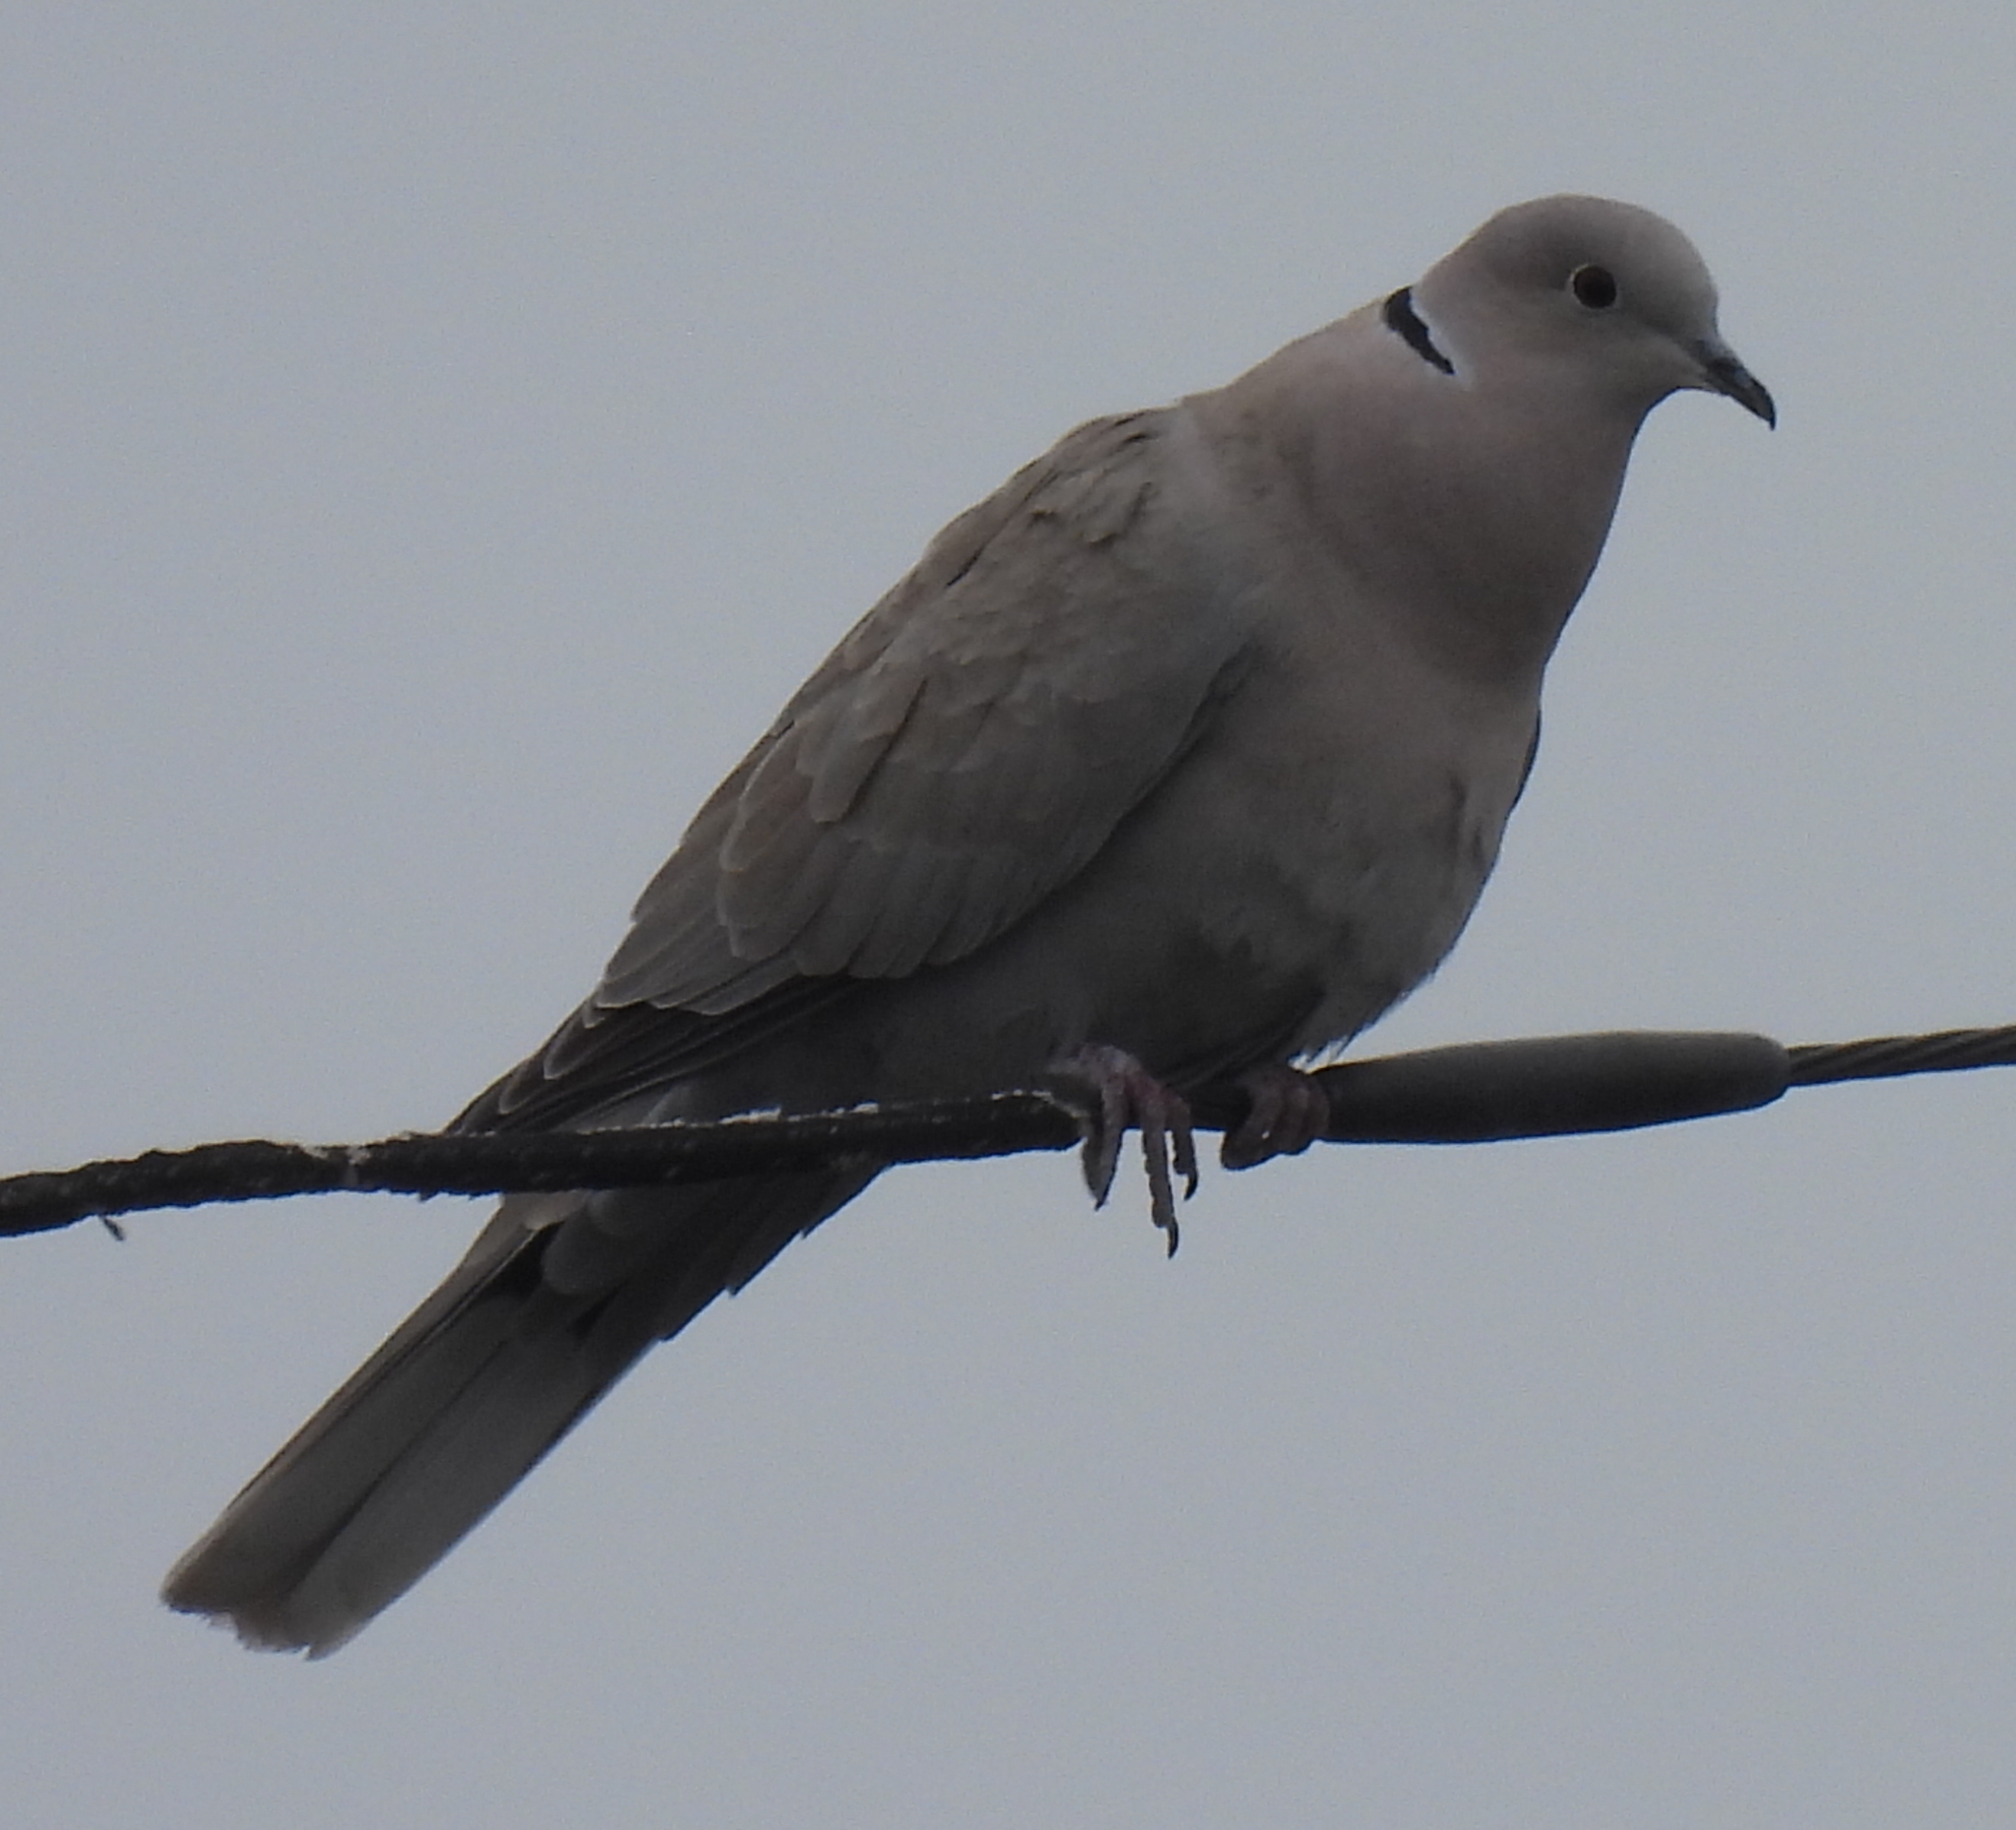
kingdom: Animalia
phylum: Chordata
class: Aves
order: Columbiformes
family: Columbidae
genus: Streptopelia
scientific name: Streptopelia decaocto
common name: Eurasian collared dove
